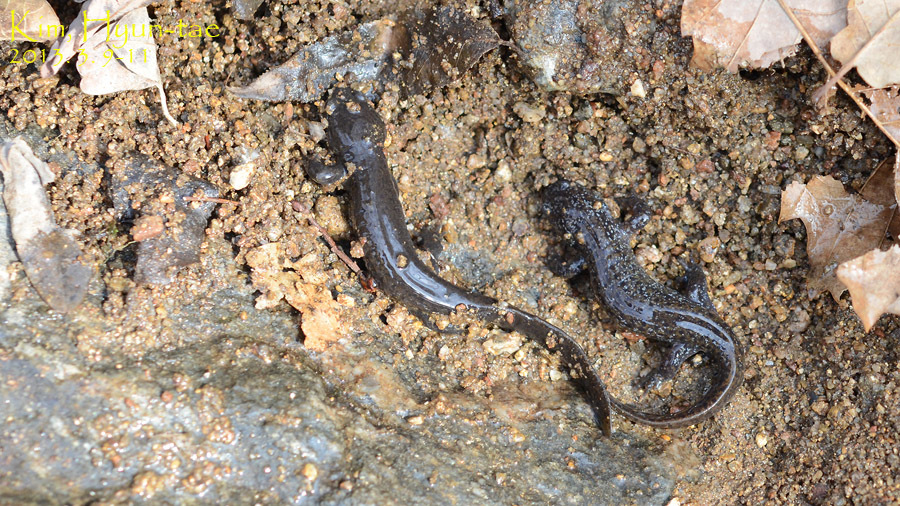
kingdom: Animalia
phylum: Chordata
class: Amphibia
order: Caudata
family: Hynobiidae
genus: Hynobius
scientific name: Hynobius leechii
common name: Gensan salamander
